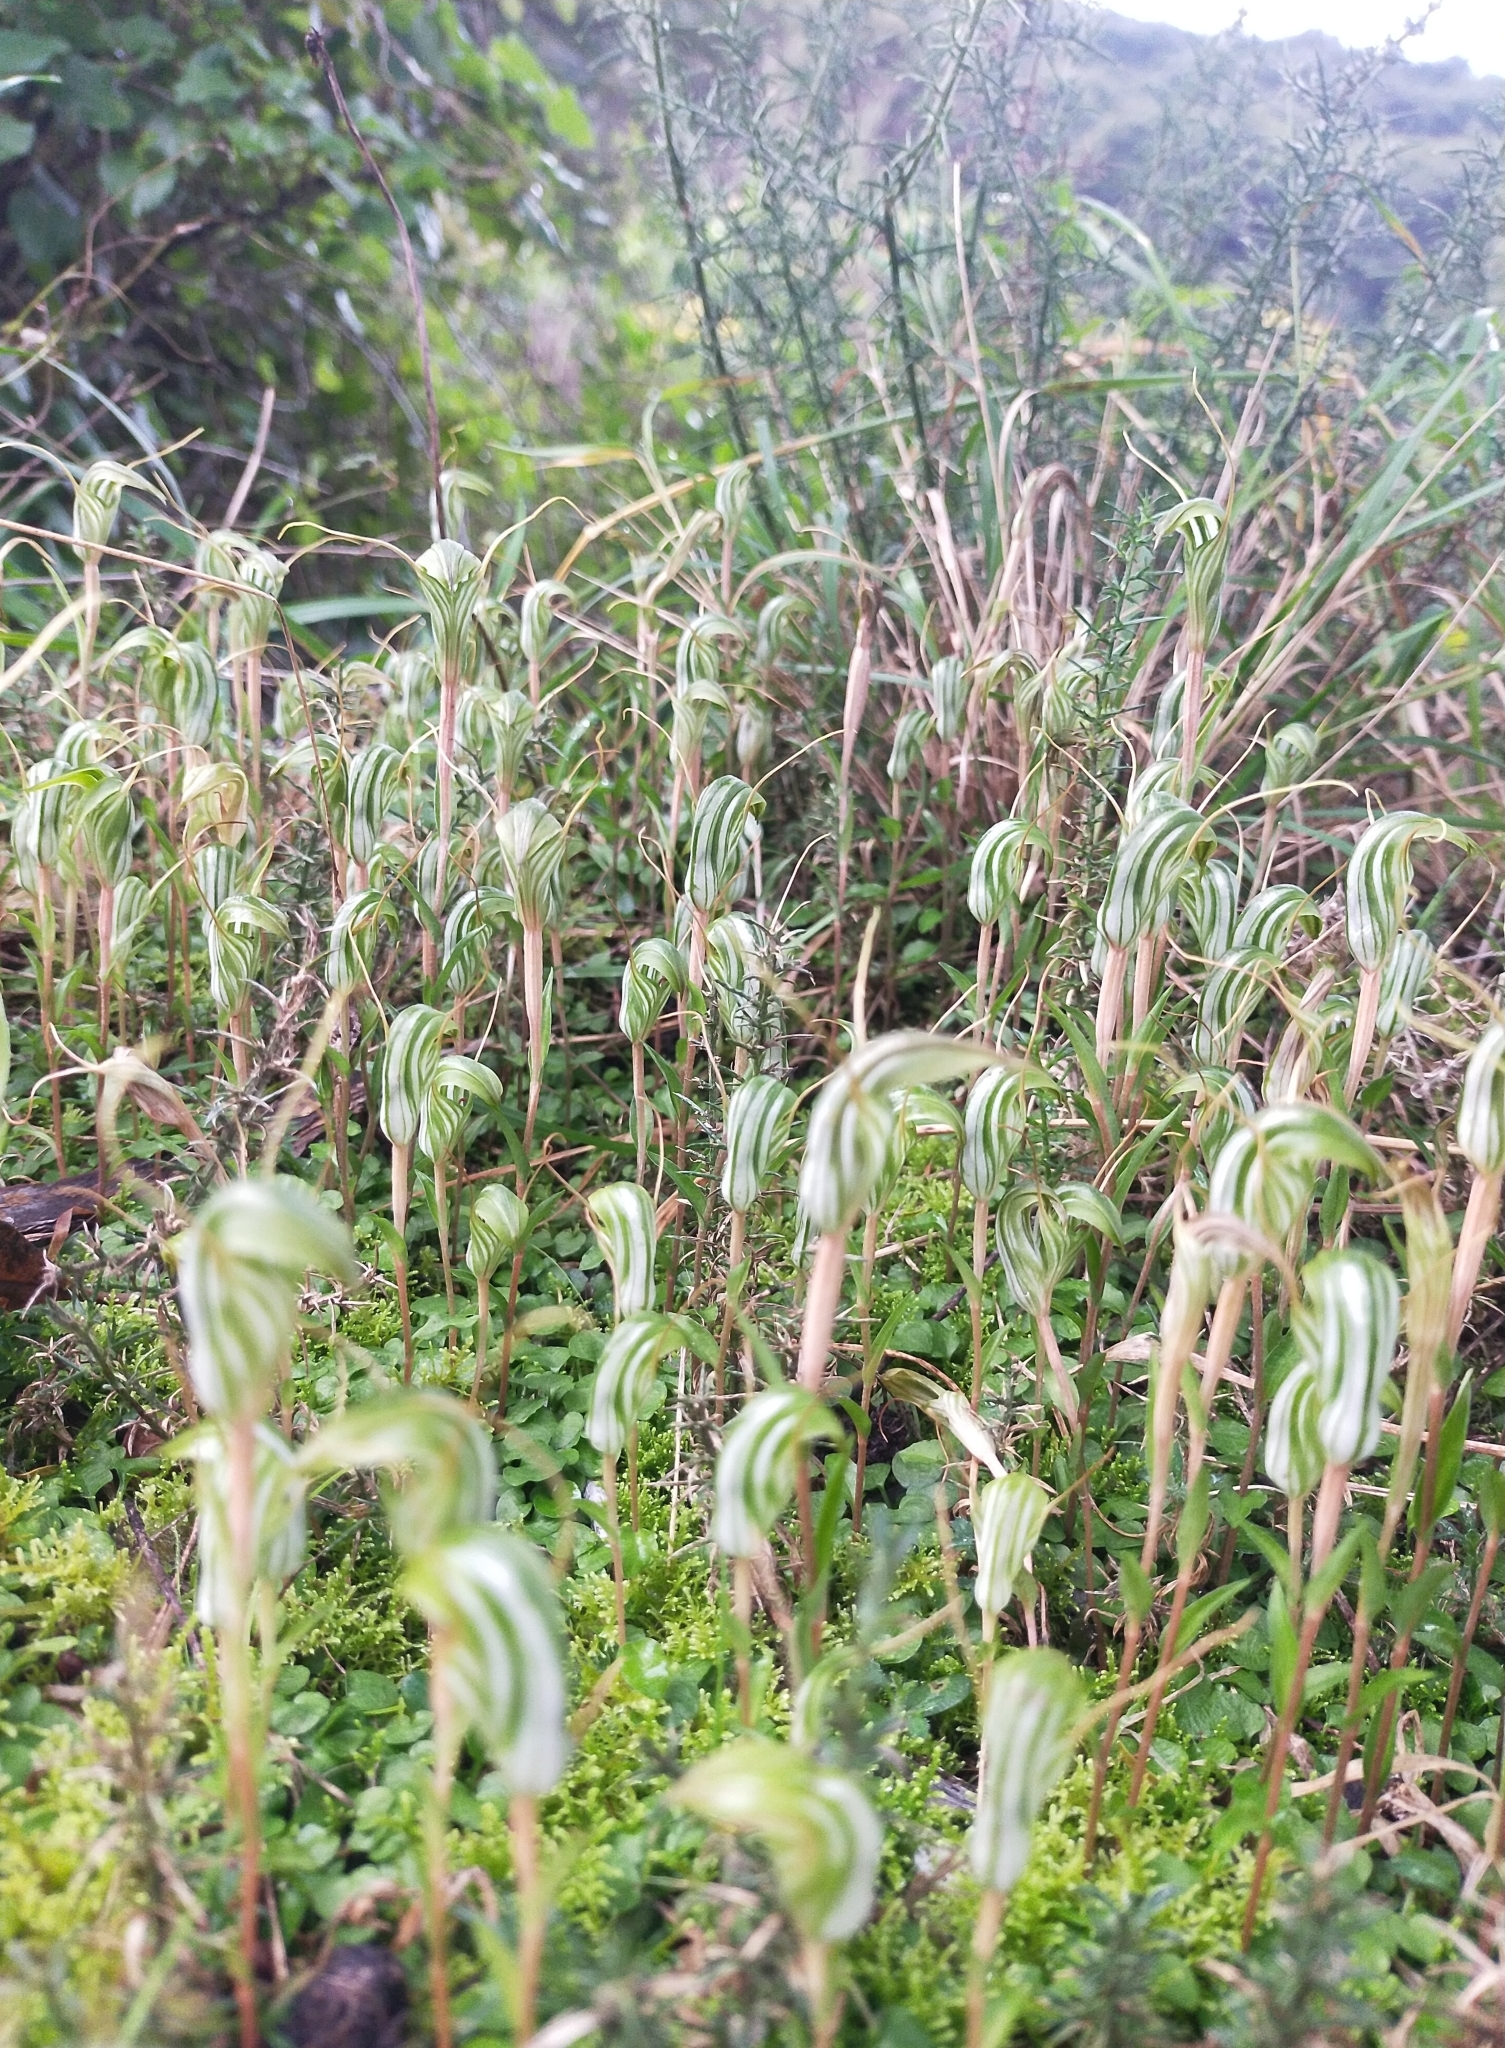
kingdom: Plantae
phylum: Tracheophyta
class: Liliopsida
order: Asparagales
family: Orchidaceae
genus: Pterostylis
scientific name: Pterostylis alobula
